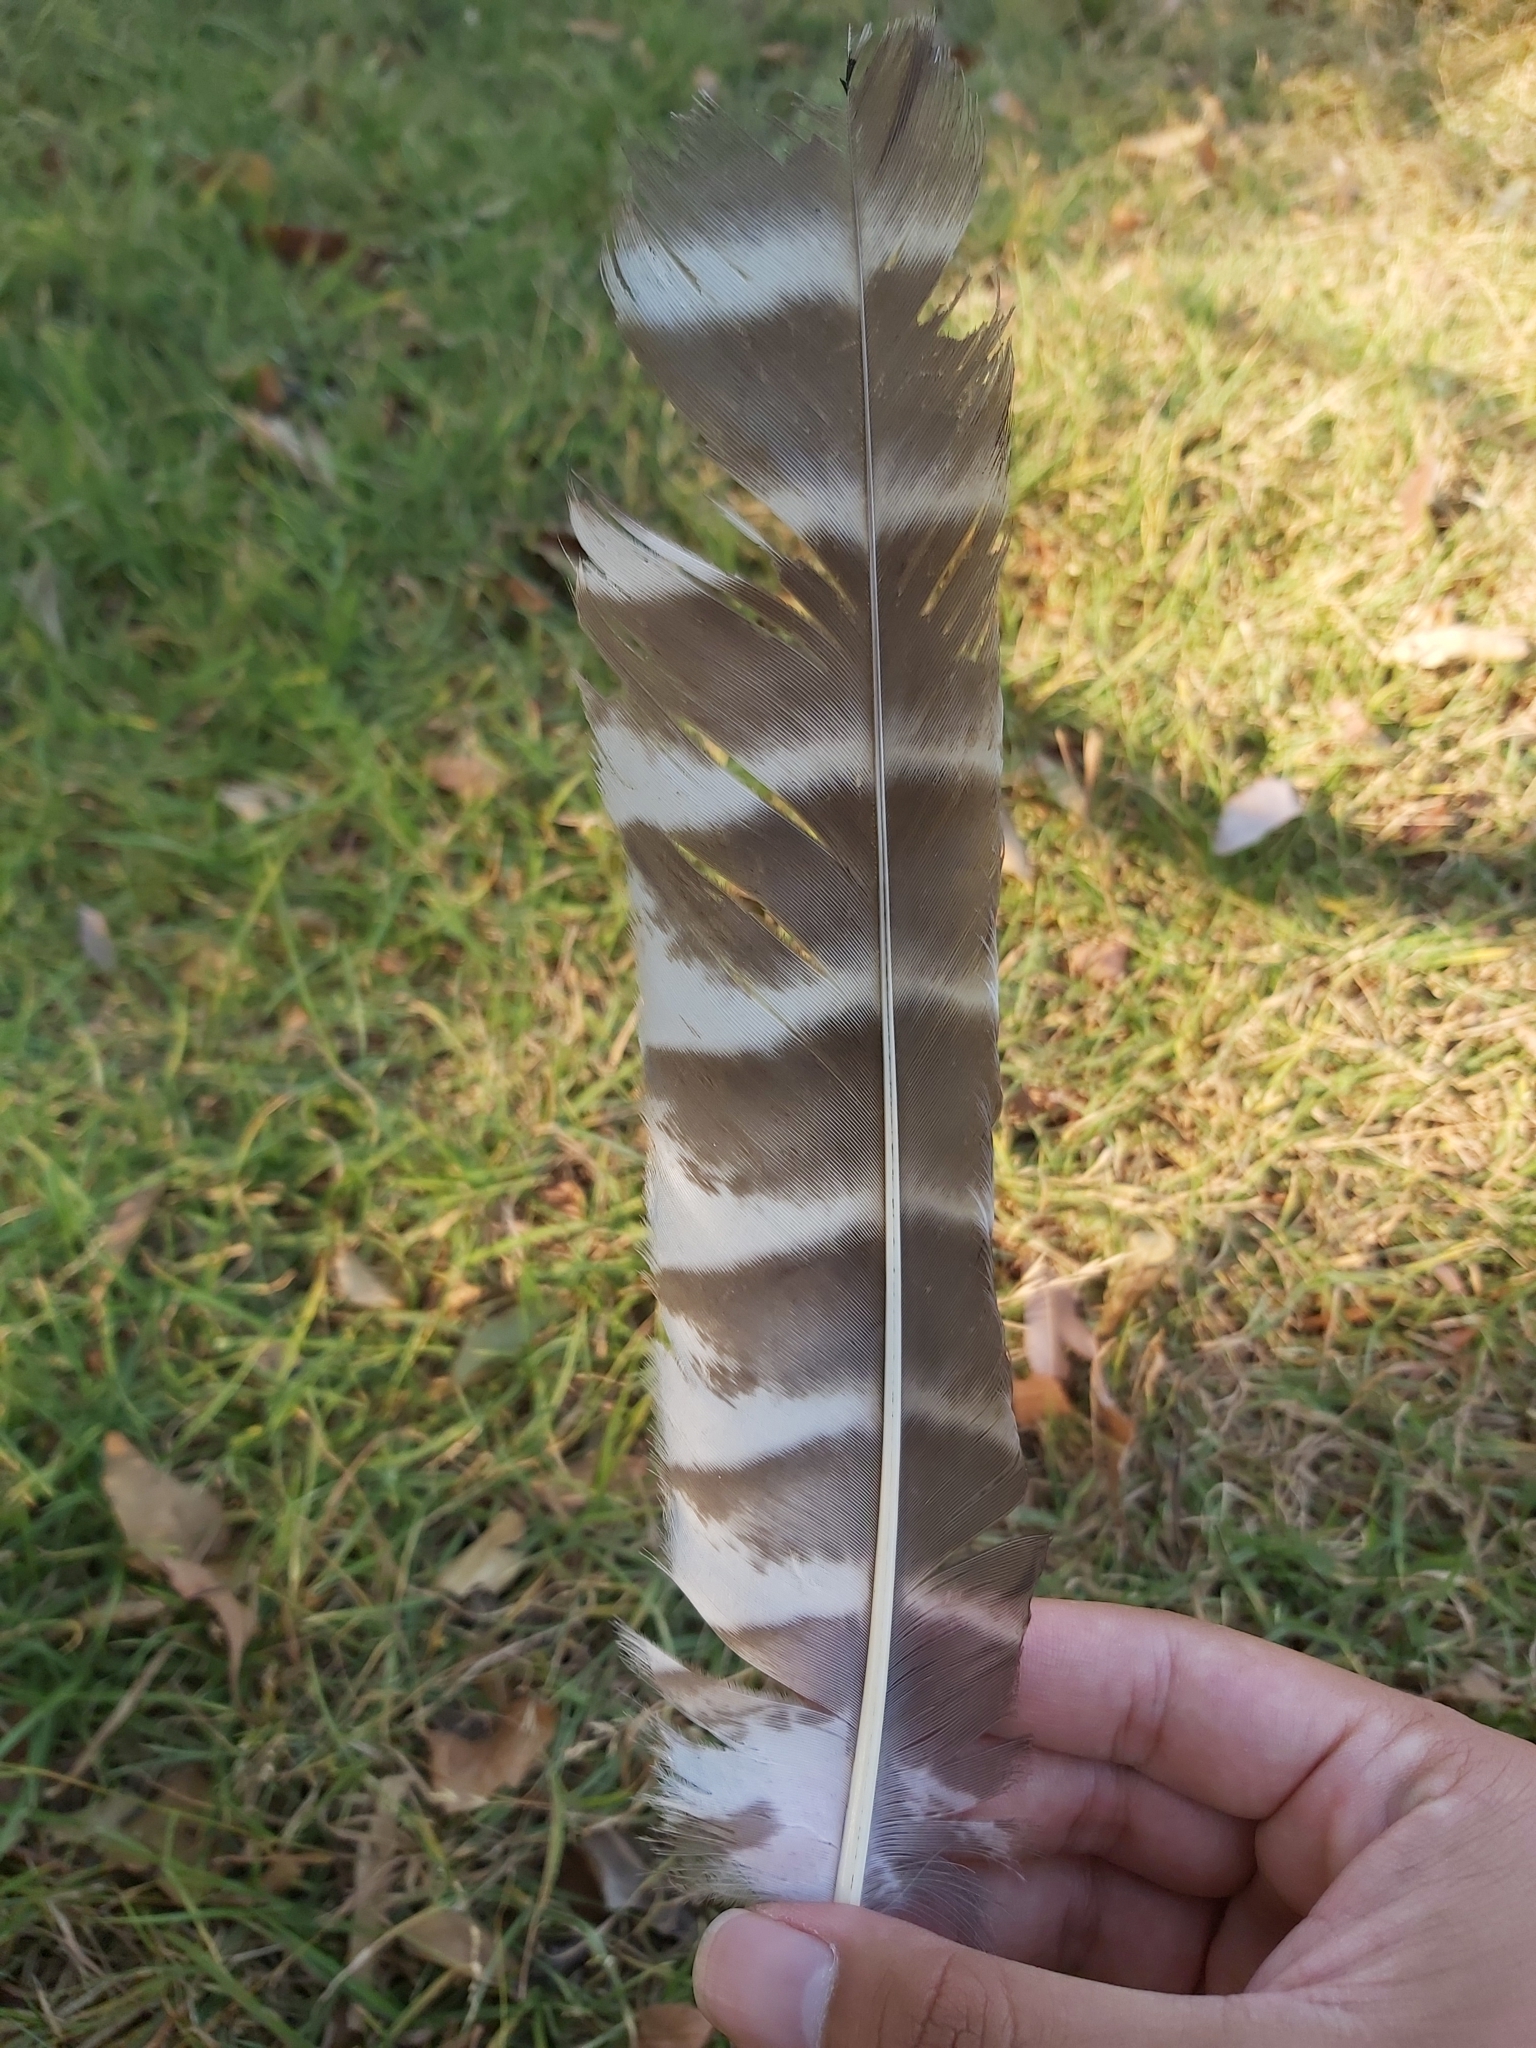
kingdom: Animalia
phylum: Chordata
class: Aves
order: Strigiformes
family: Strigidae
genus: Ninox
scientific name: Ninox strenua
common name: Powerful owl
